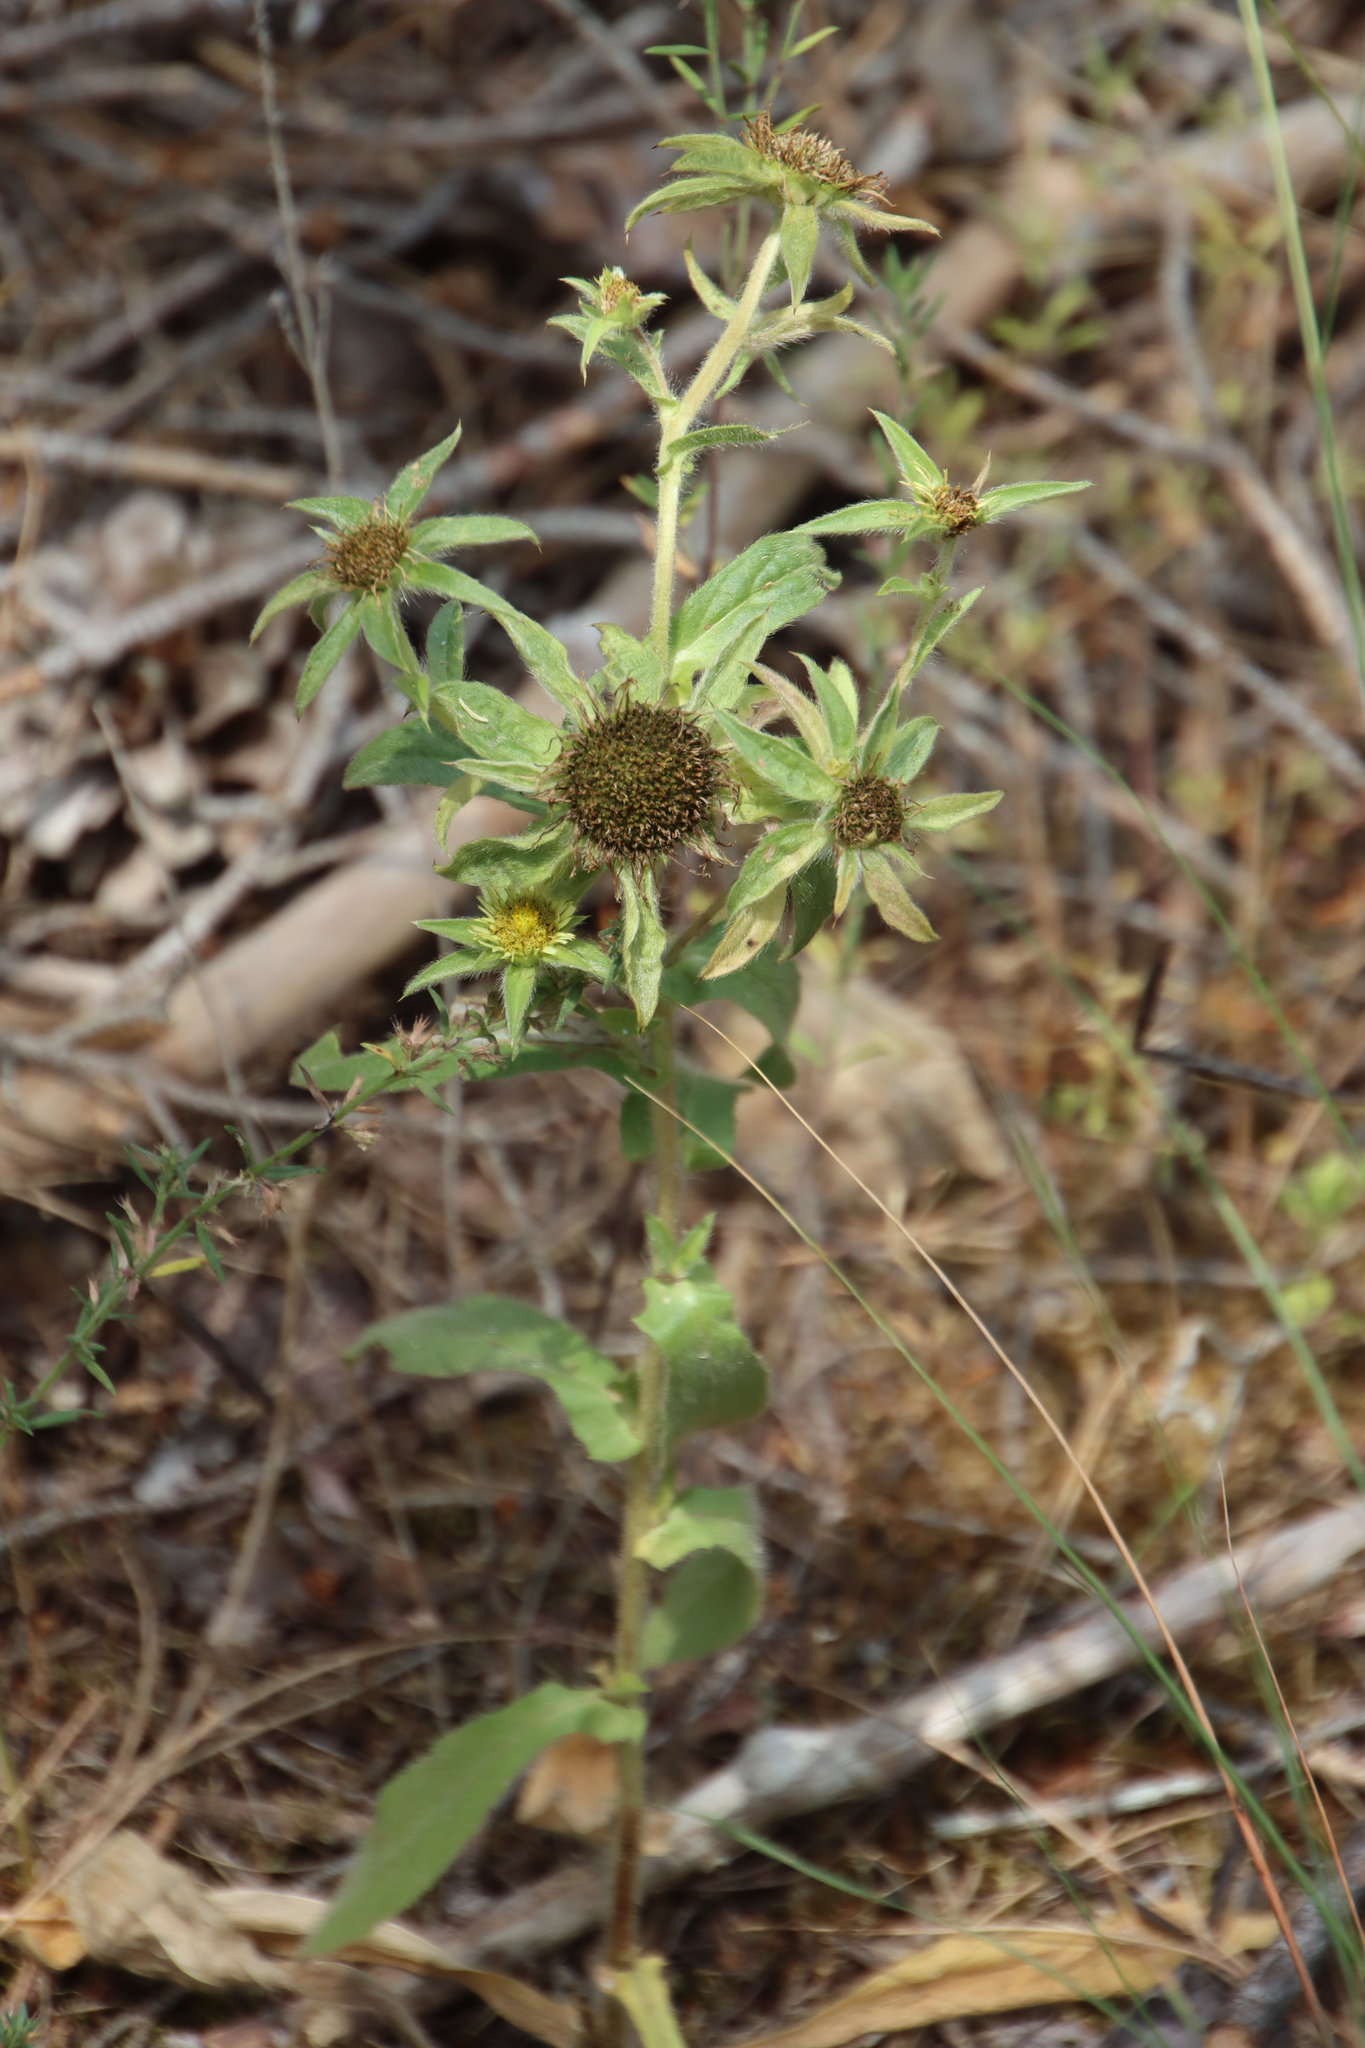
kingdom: Plantae
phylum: Tracheophyta
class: Magnoliopsida
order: Asterales
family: Asteraceae
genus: Pallenis
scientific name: Pallenis spinosa
